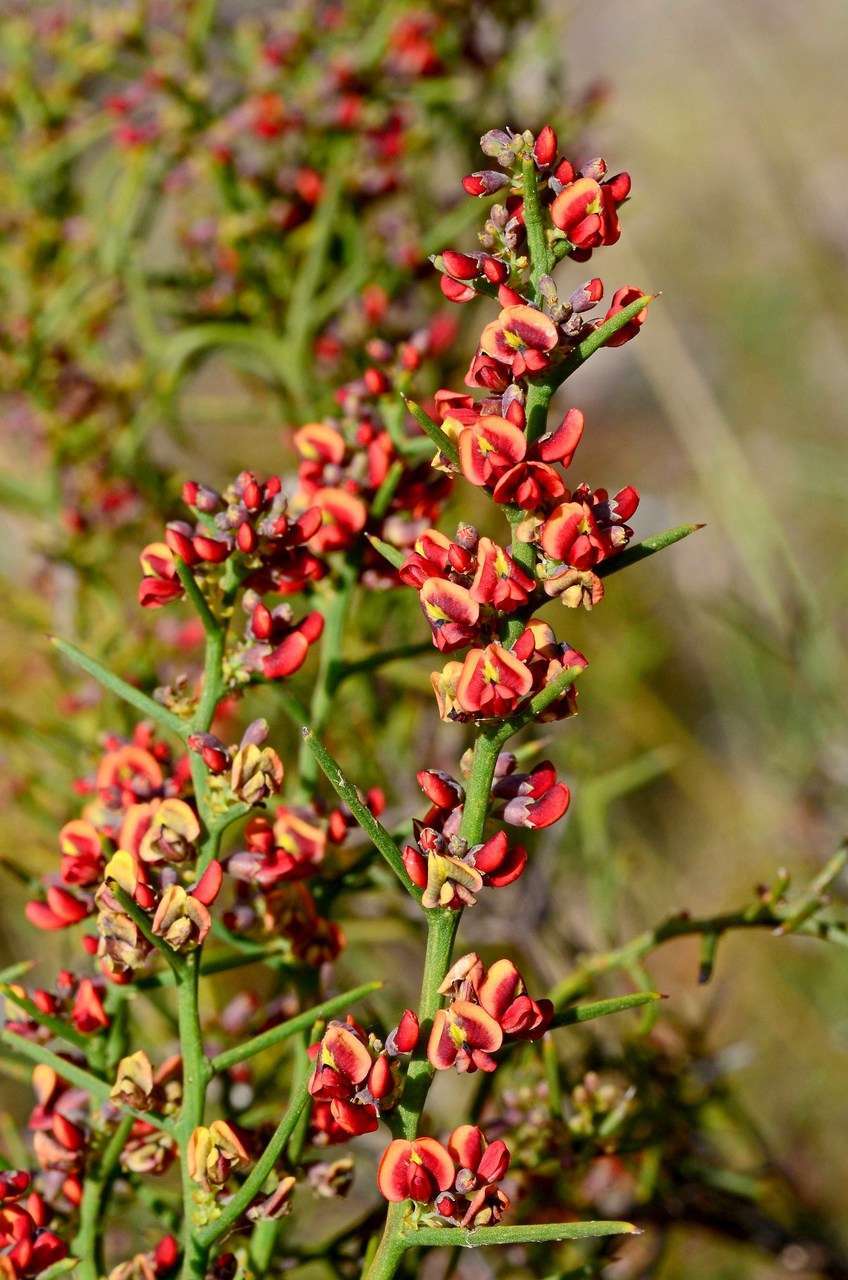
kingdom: Plantae
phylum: Tracheophyta
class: Magnoliopsida
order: Fabales
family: Fabaceae
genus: Daviesia
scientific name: Daviesia devito
